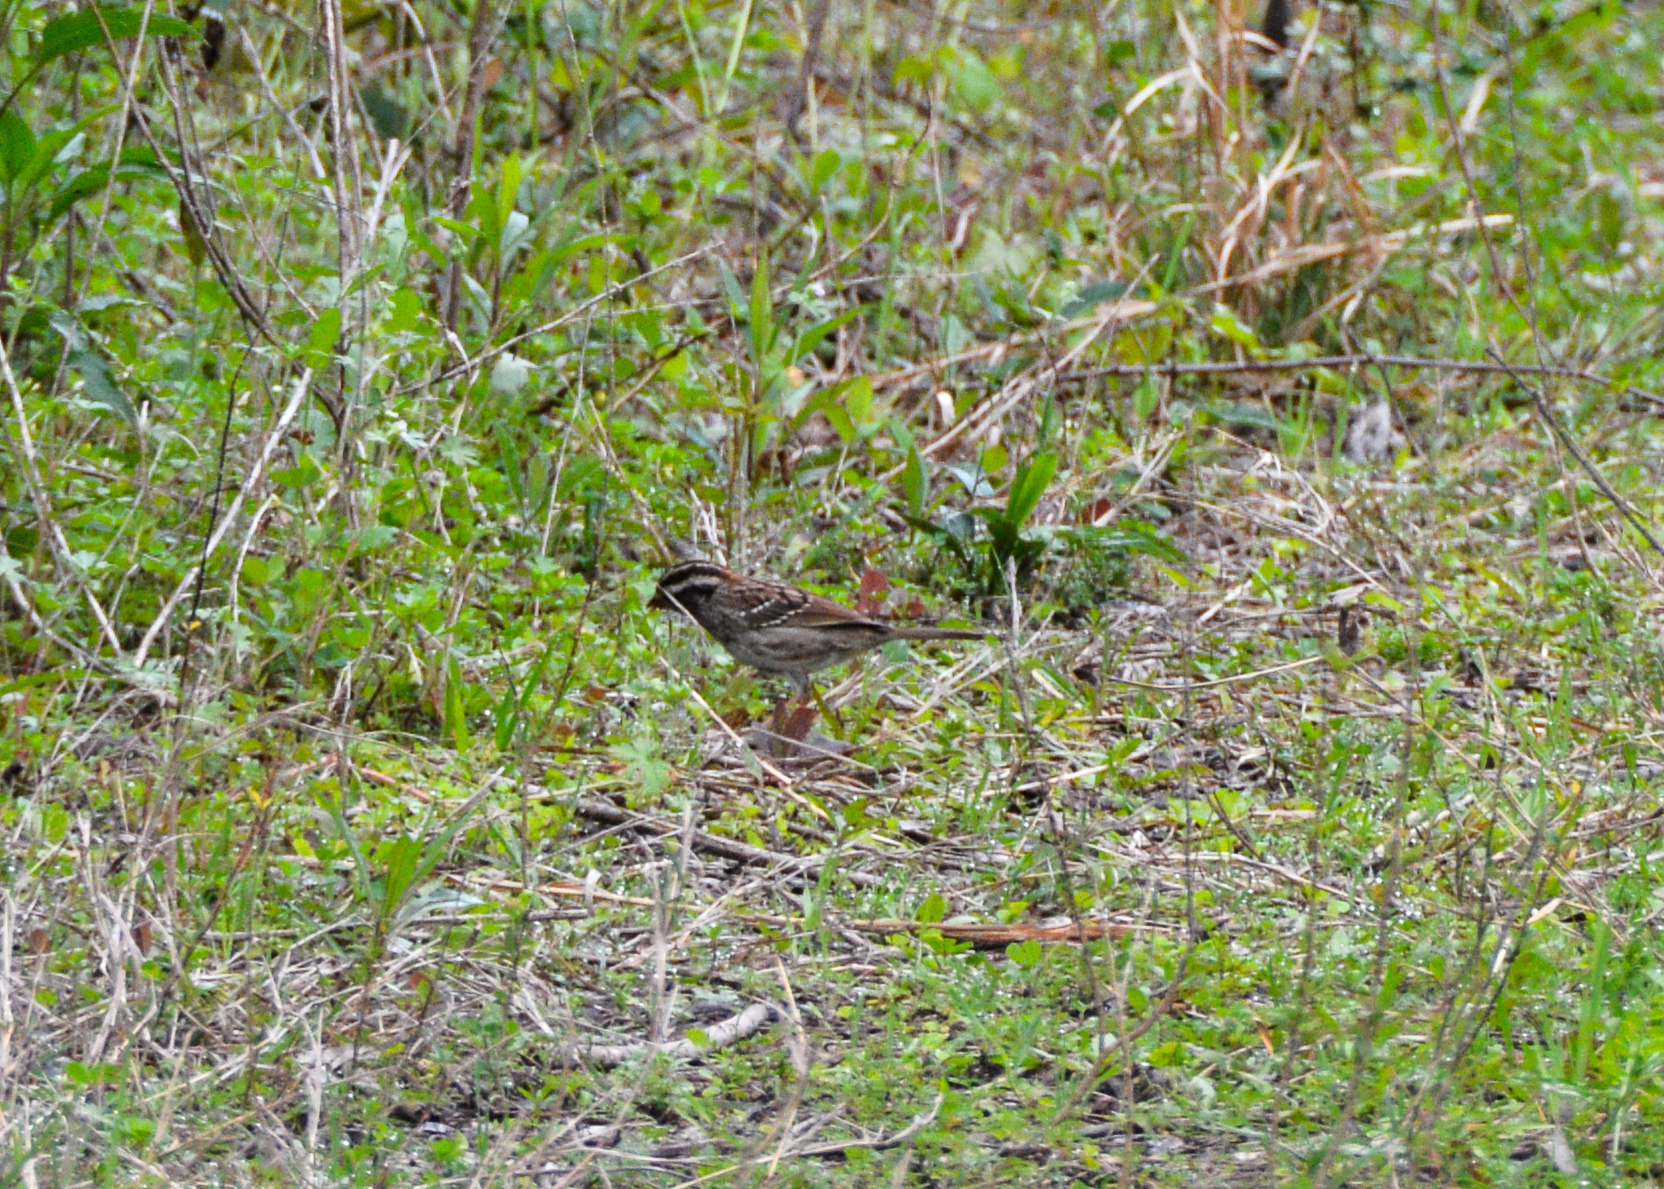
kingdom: Animalia
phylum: Chordata
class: Aves
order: Passeriformes
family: Passerellidae
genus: Zonotrichia
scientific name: Zonotrichia albicollis
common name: White-throated sparrow
